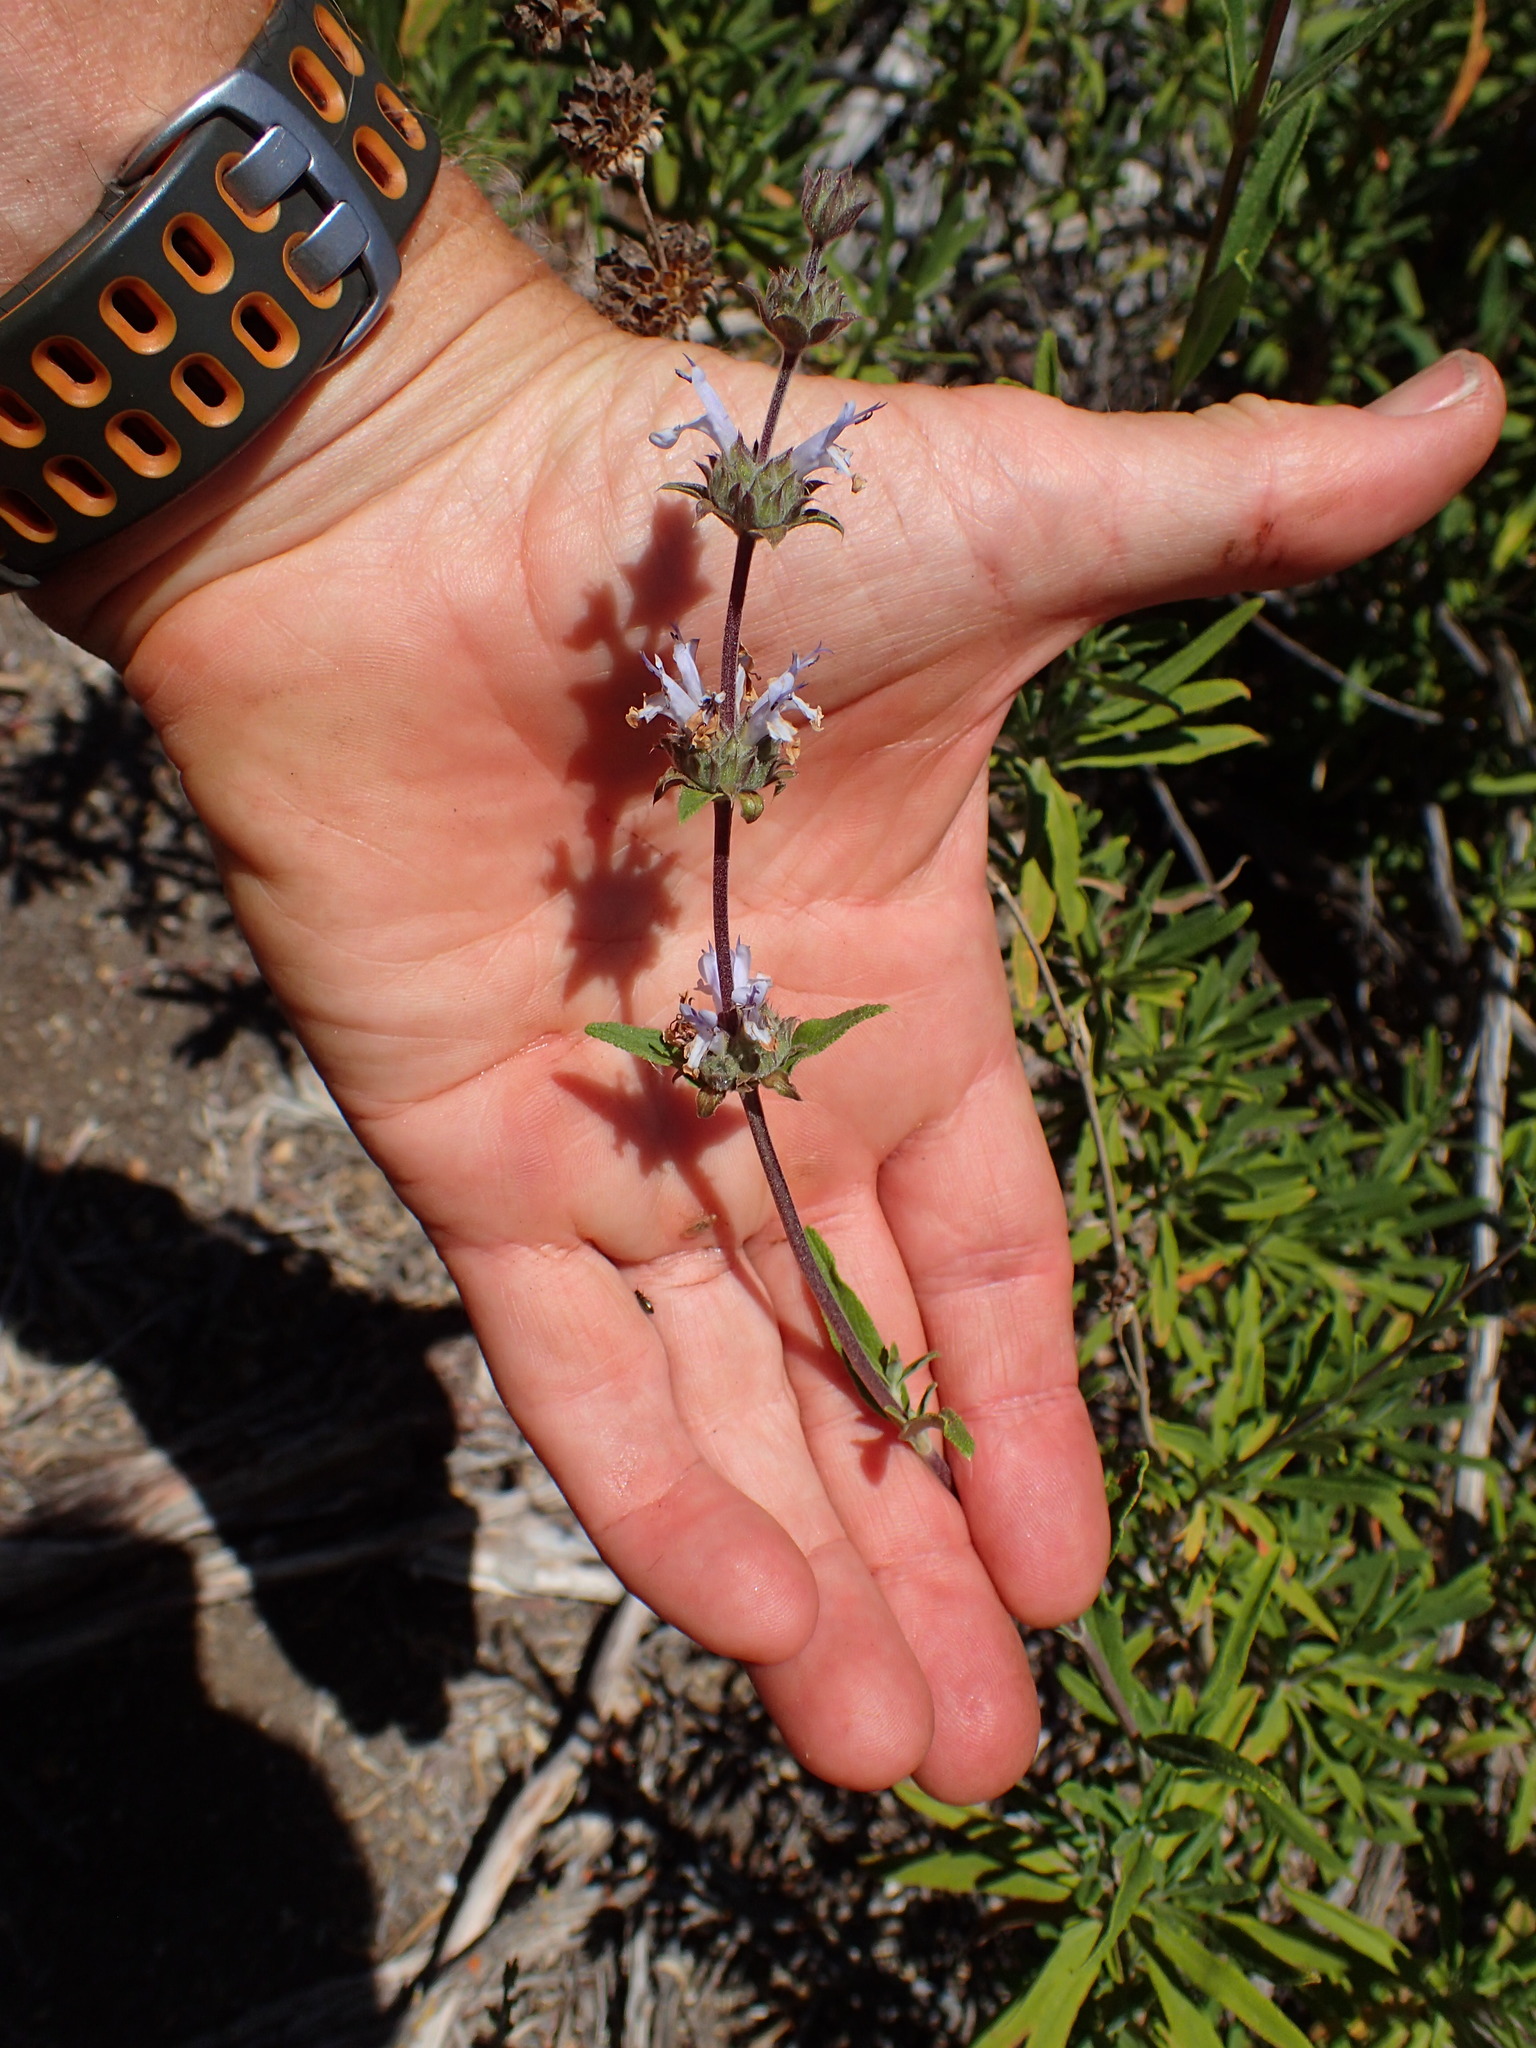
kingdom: Plantae
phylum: Tracheophyta
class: Magnoliopsida
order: Lamiales
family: Lamiaceae
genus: Salvia
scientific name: Salvia mellifera
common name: Black sage
